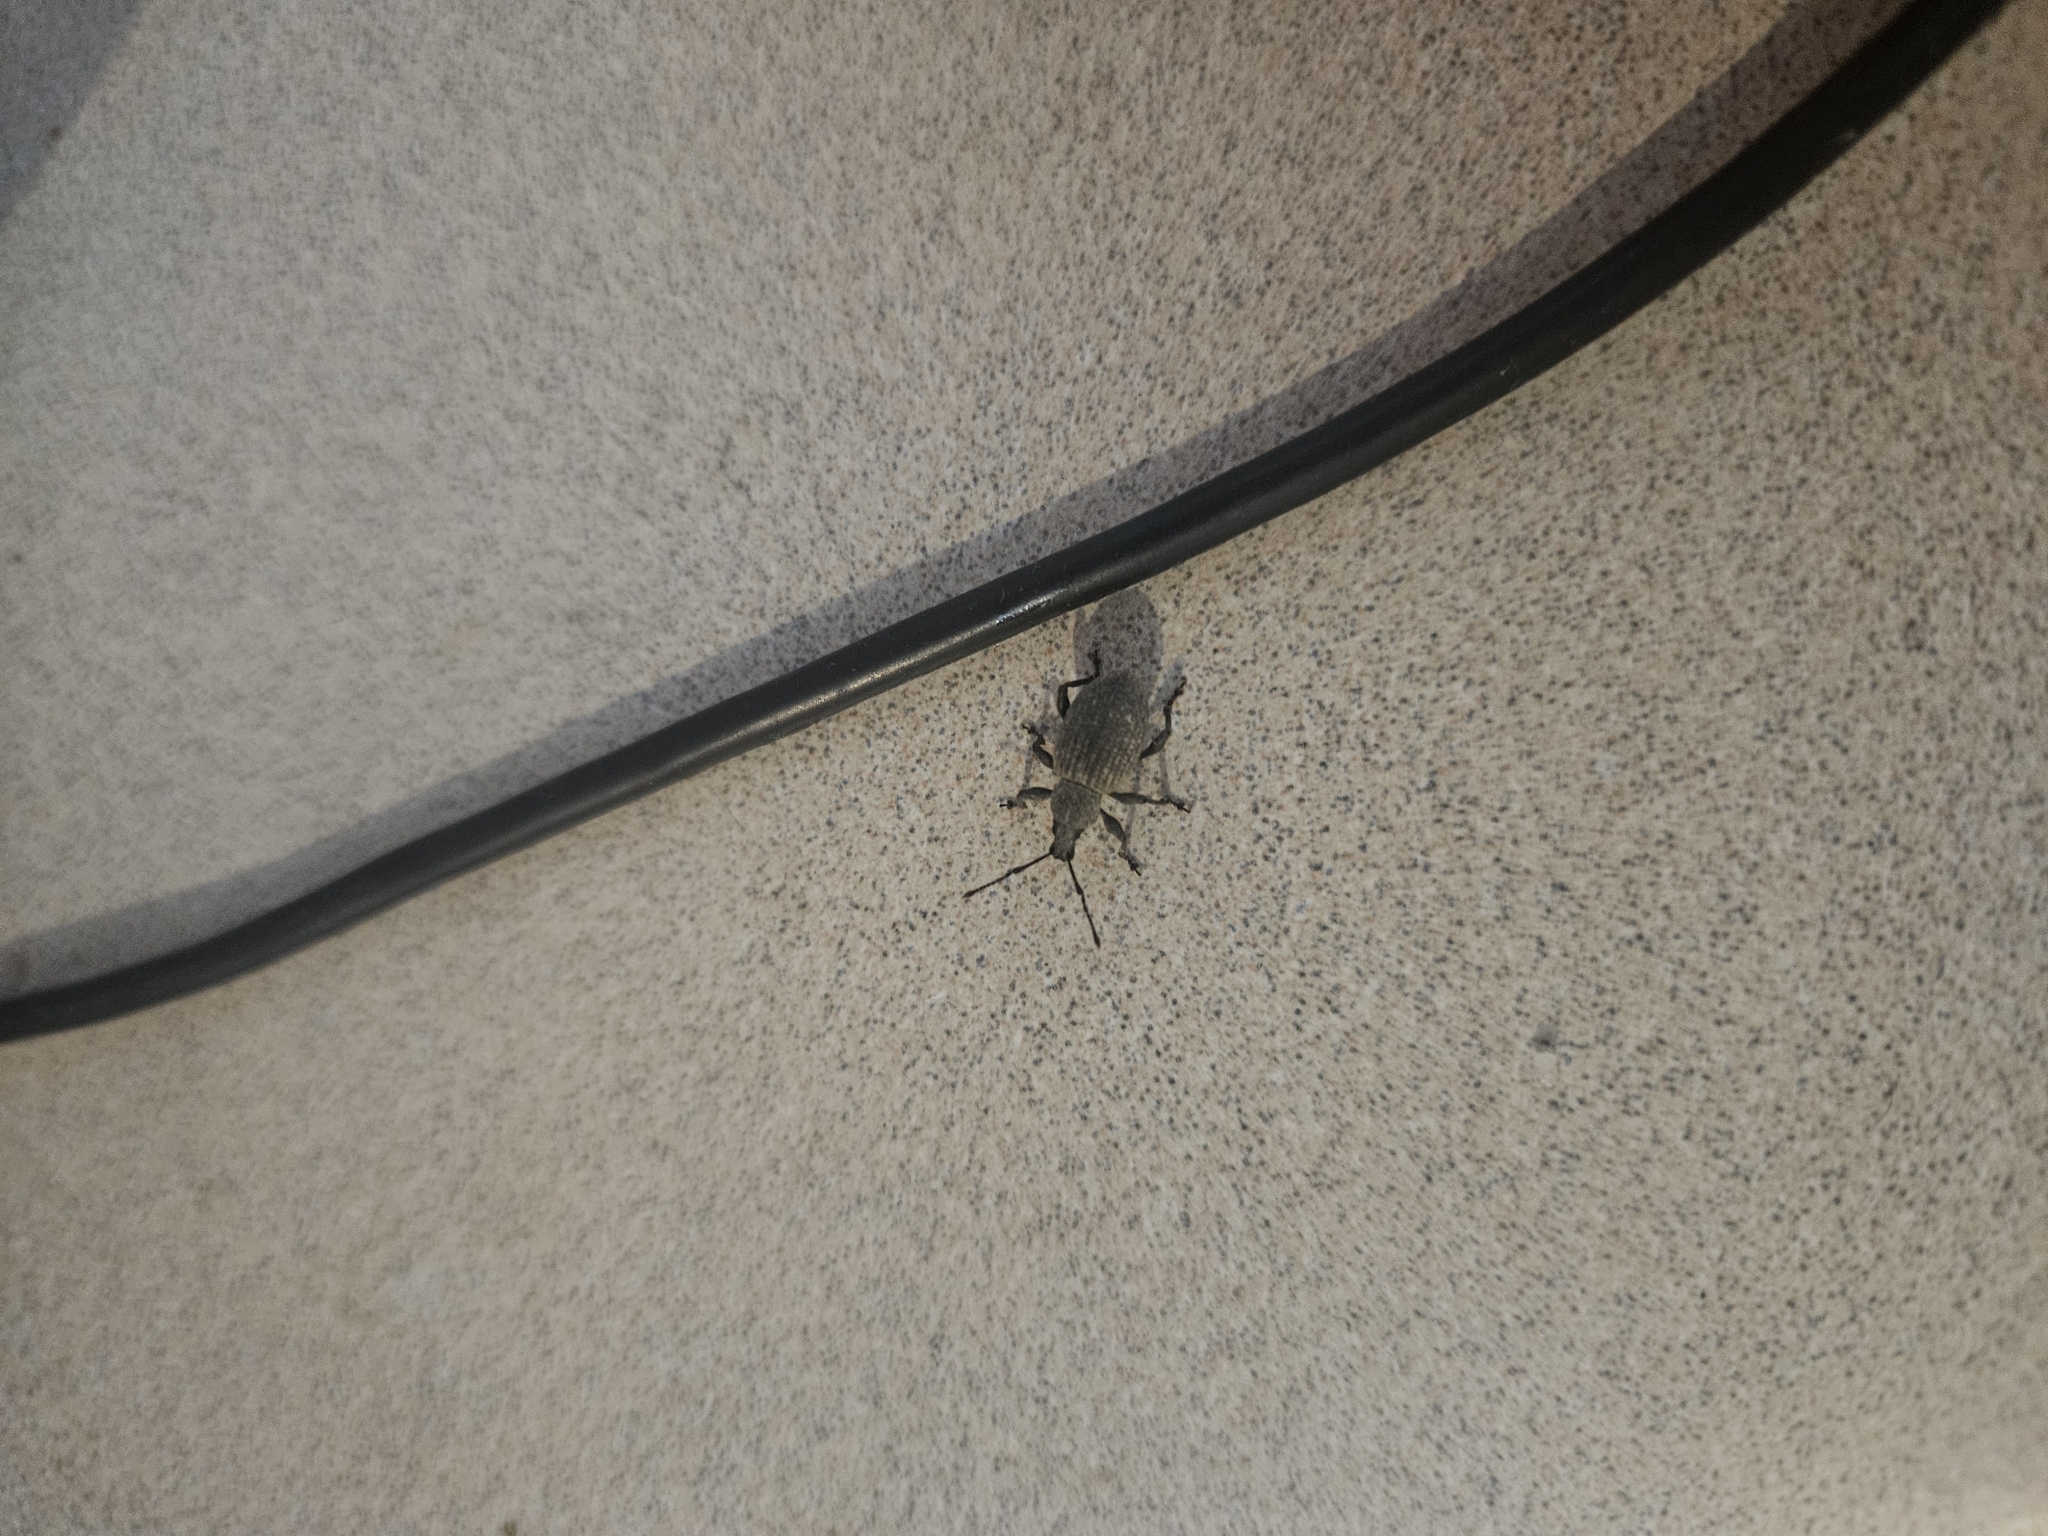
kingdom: Animalia
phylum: Arthropoda
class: Insecta
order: Coleoptera
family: Curculionidae
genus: Otiorhynchus
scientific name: Otiorhynchus sulcatus
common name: Black vine weevil
